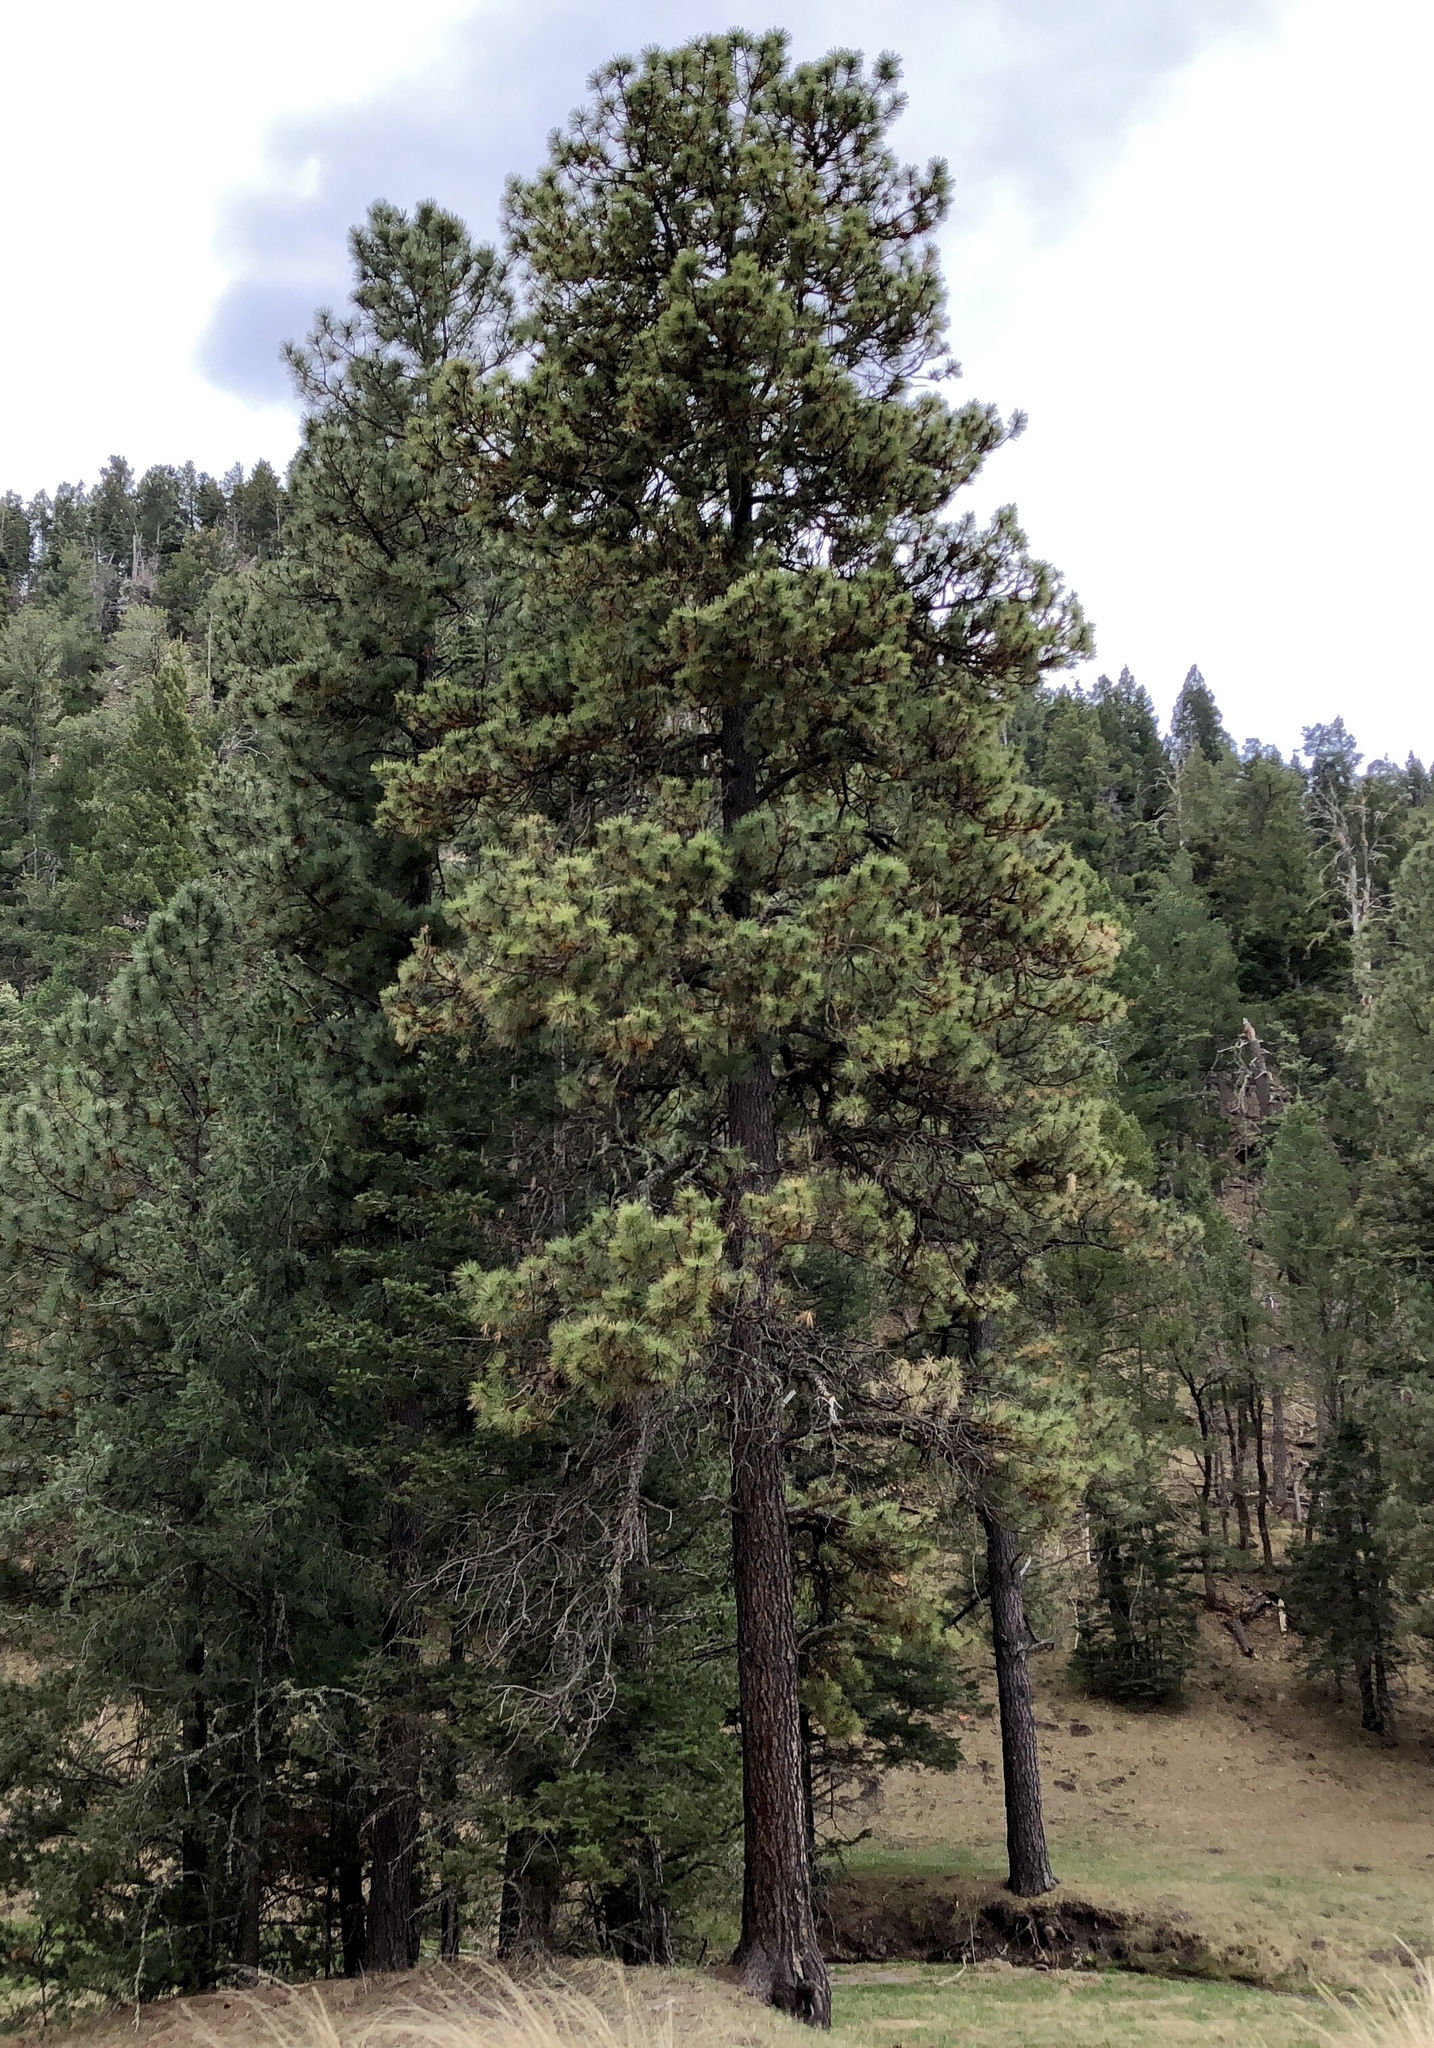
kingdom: Plantae
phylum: Tracheophyta
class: Pinopsida
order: Pinales
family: Pinaceae
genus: Pinus
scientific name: Pinus ponderosa
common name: Western yellow-pine
